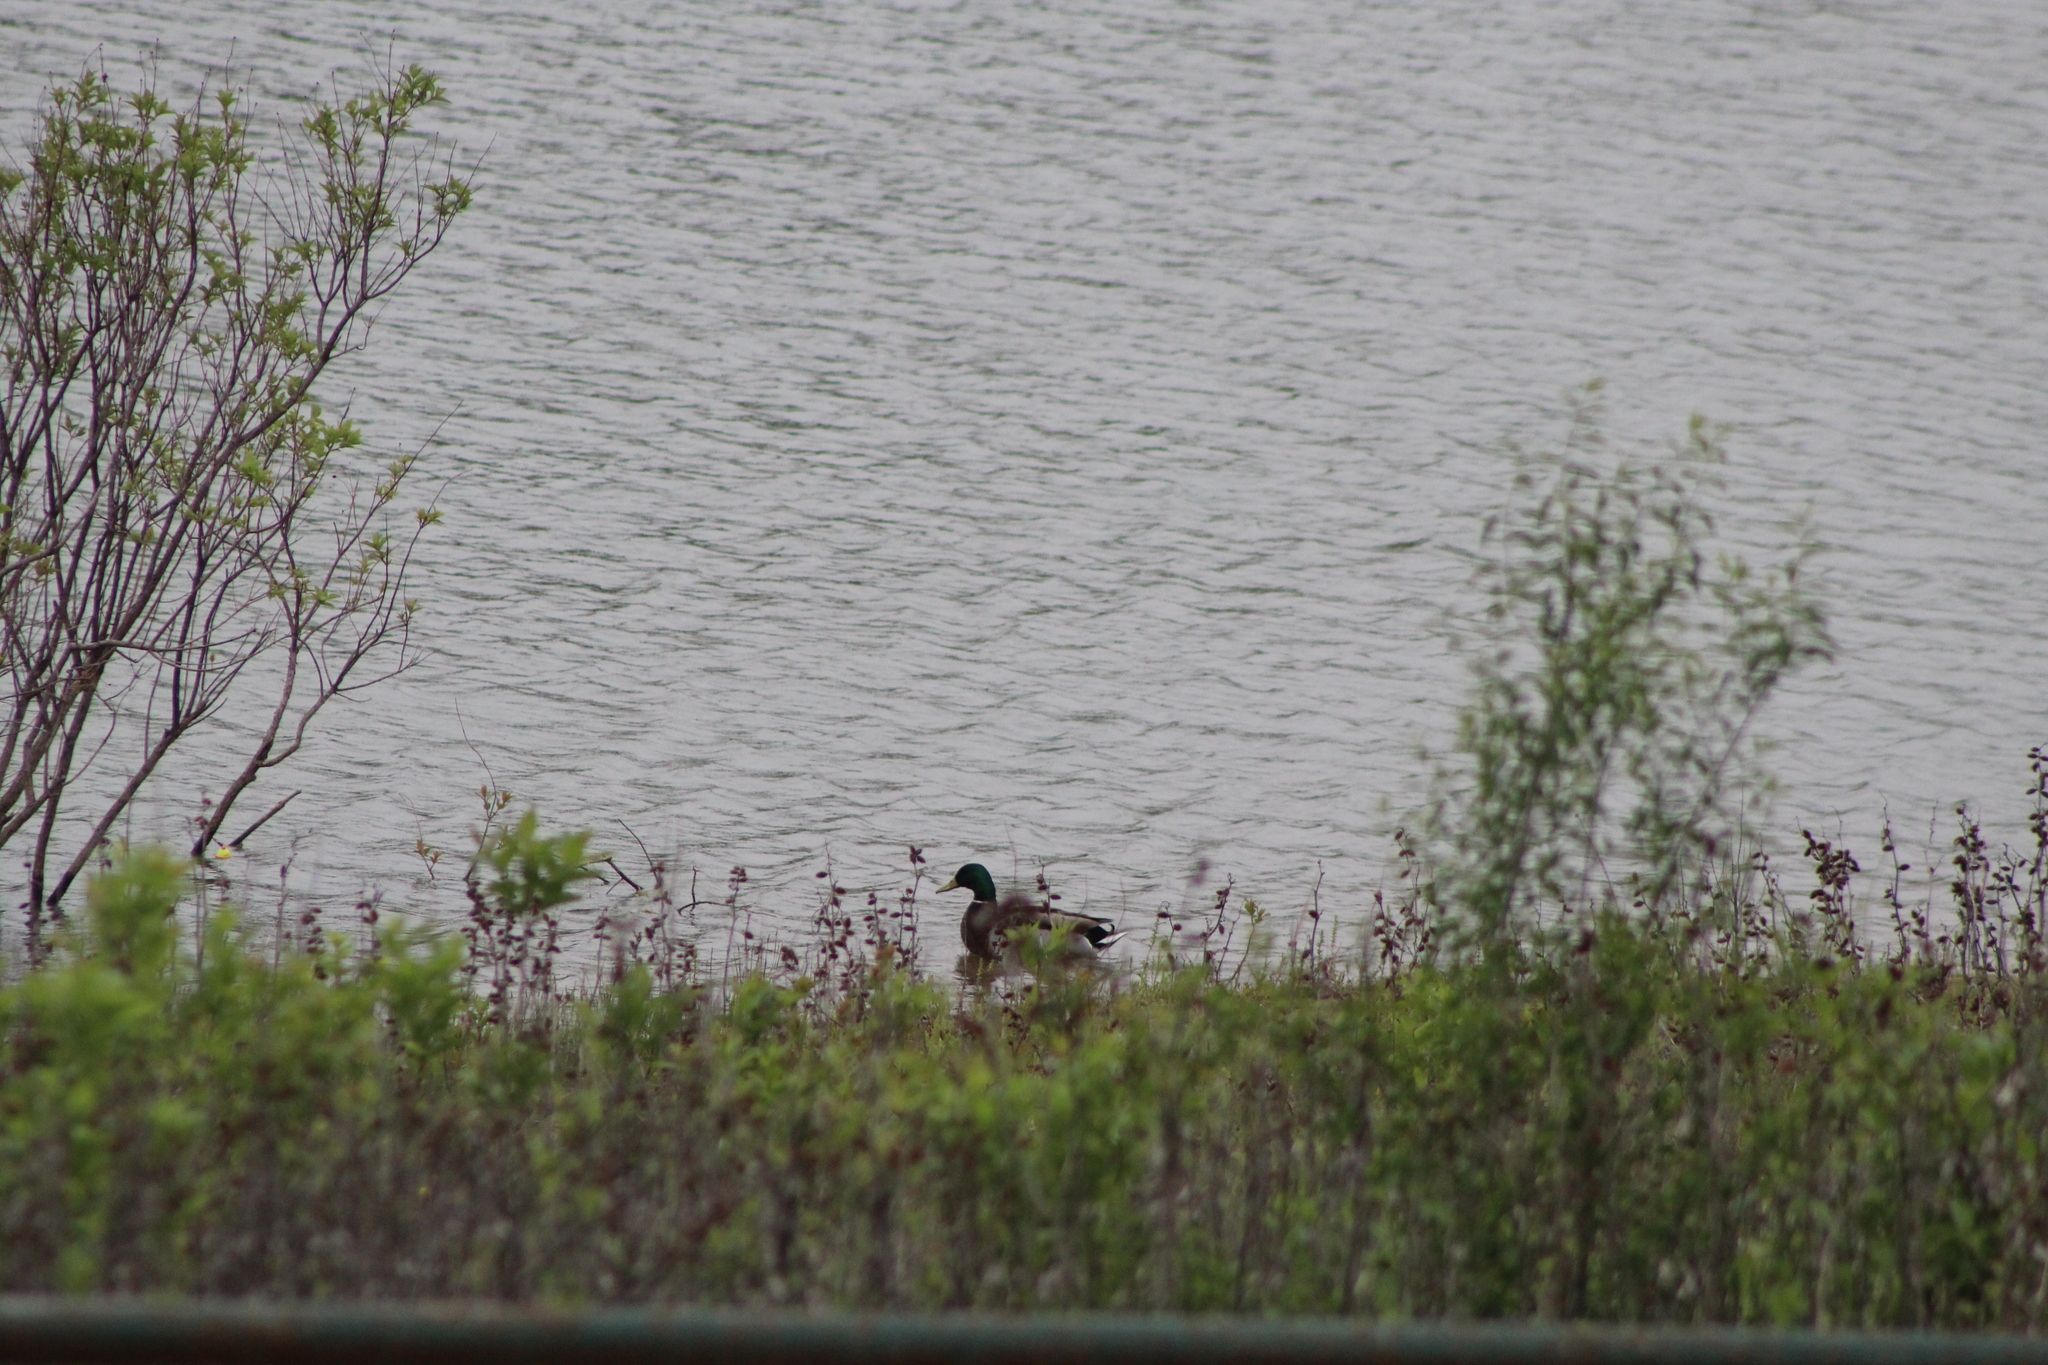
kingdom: Animalia
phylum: Chordata
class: Aves
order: Anseriformes
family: Anatidae
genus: Anas
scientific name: Anas platyrhynchos
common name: Mallard
